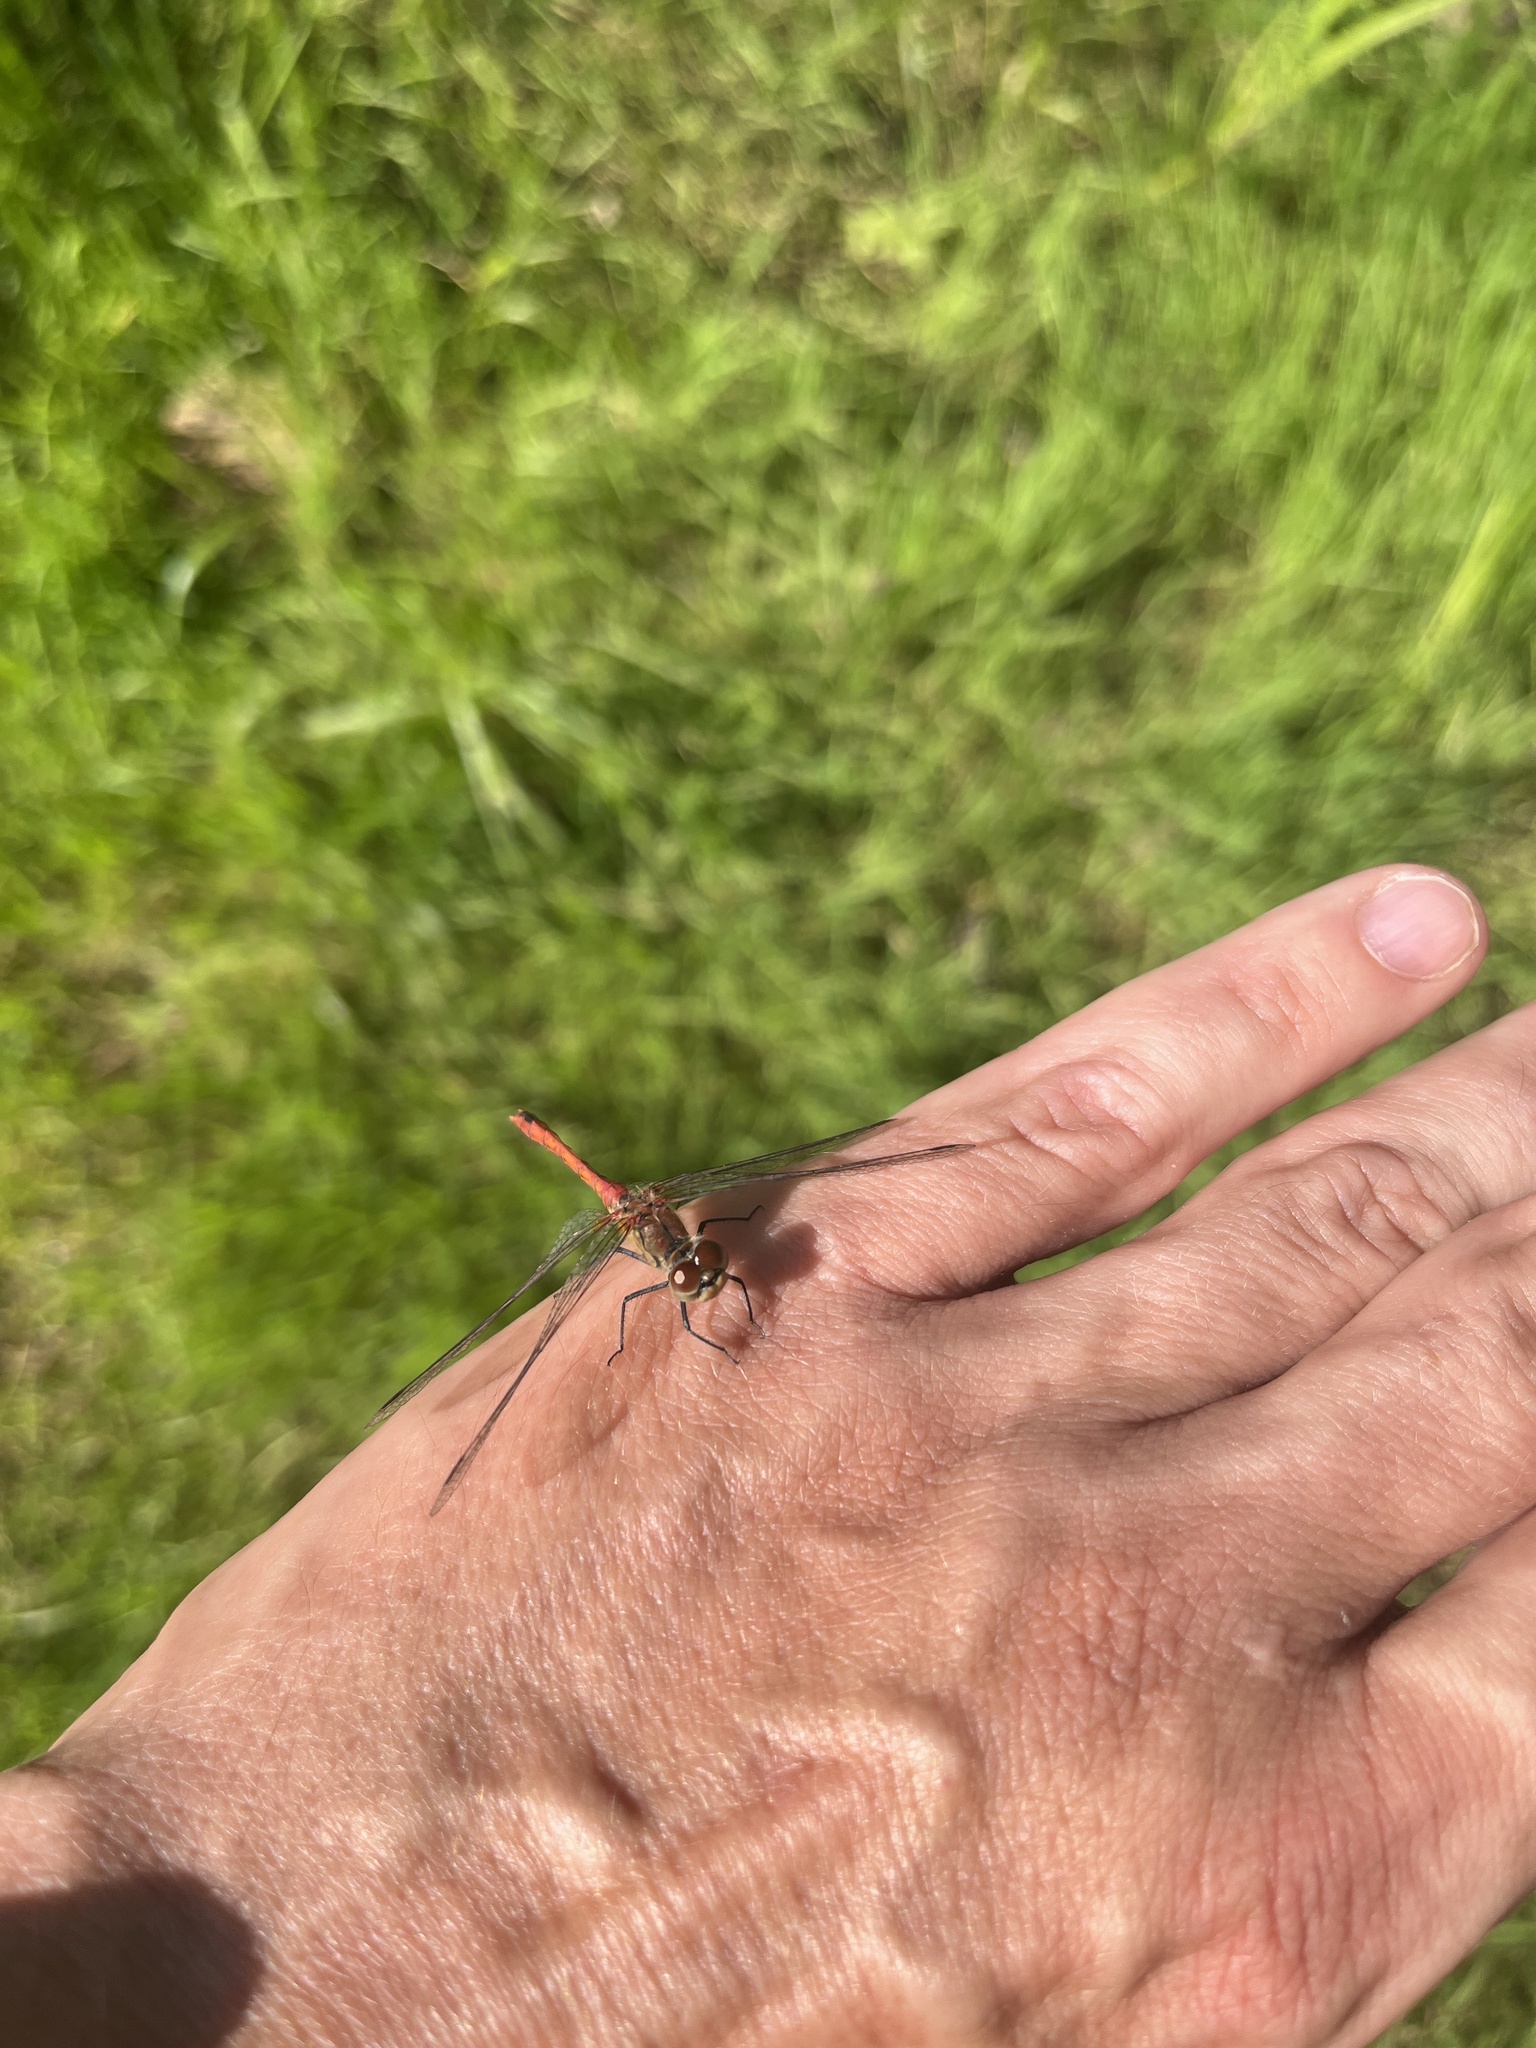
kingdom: Animalia
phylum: Arthropoda
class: Insecta
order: Odonata
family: Libellulidae
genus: Sympetrum
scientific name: Sympetrum sanguineum
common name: Ruddy darter
